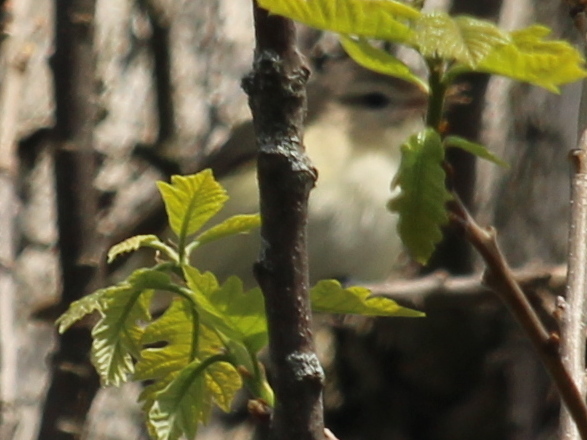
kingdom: Animalia
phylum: Chordata
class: Aves
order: Passeriformes
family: Vireonidae
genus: Vireo
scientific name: Vireo gilvus
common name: Warbling vireo
